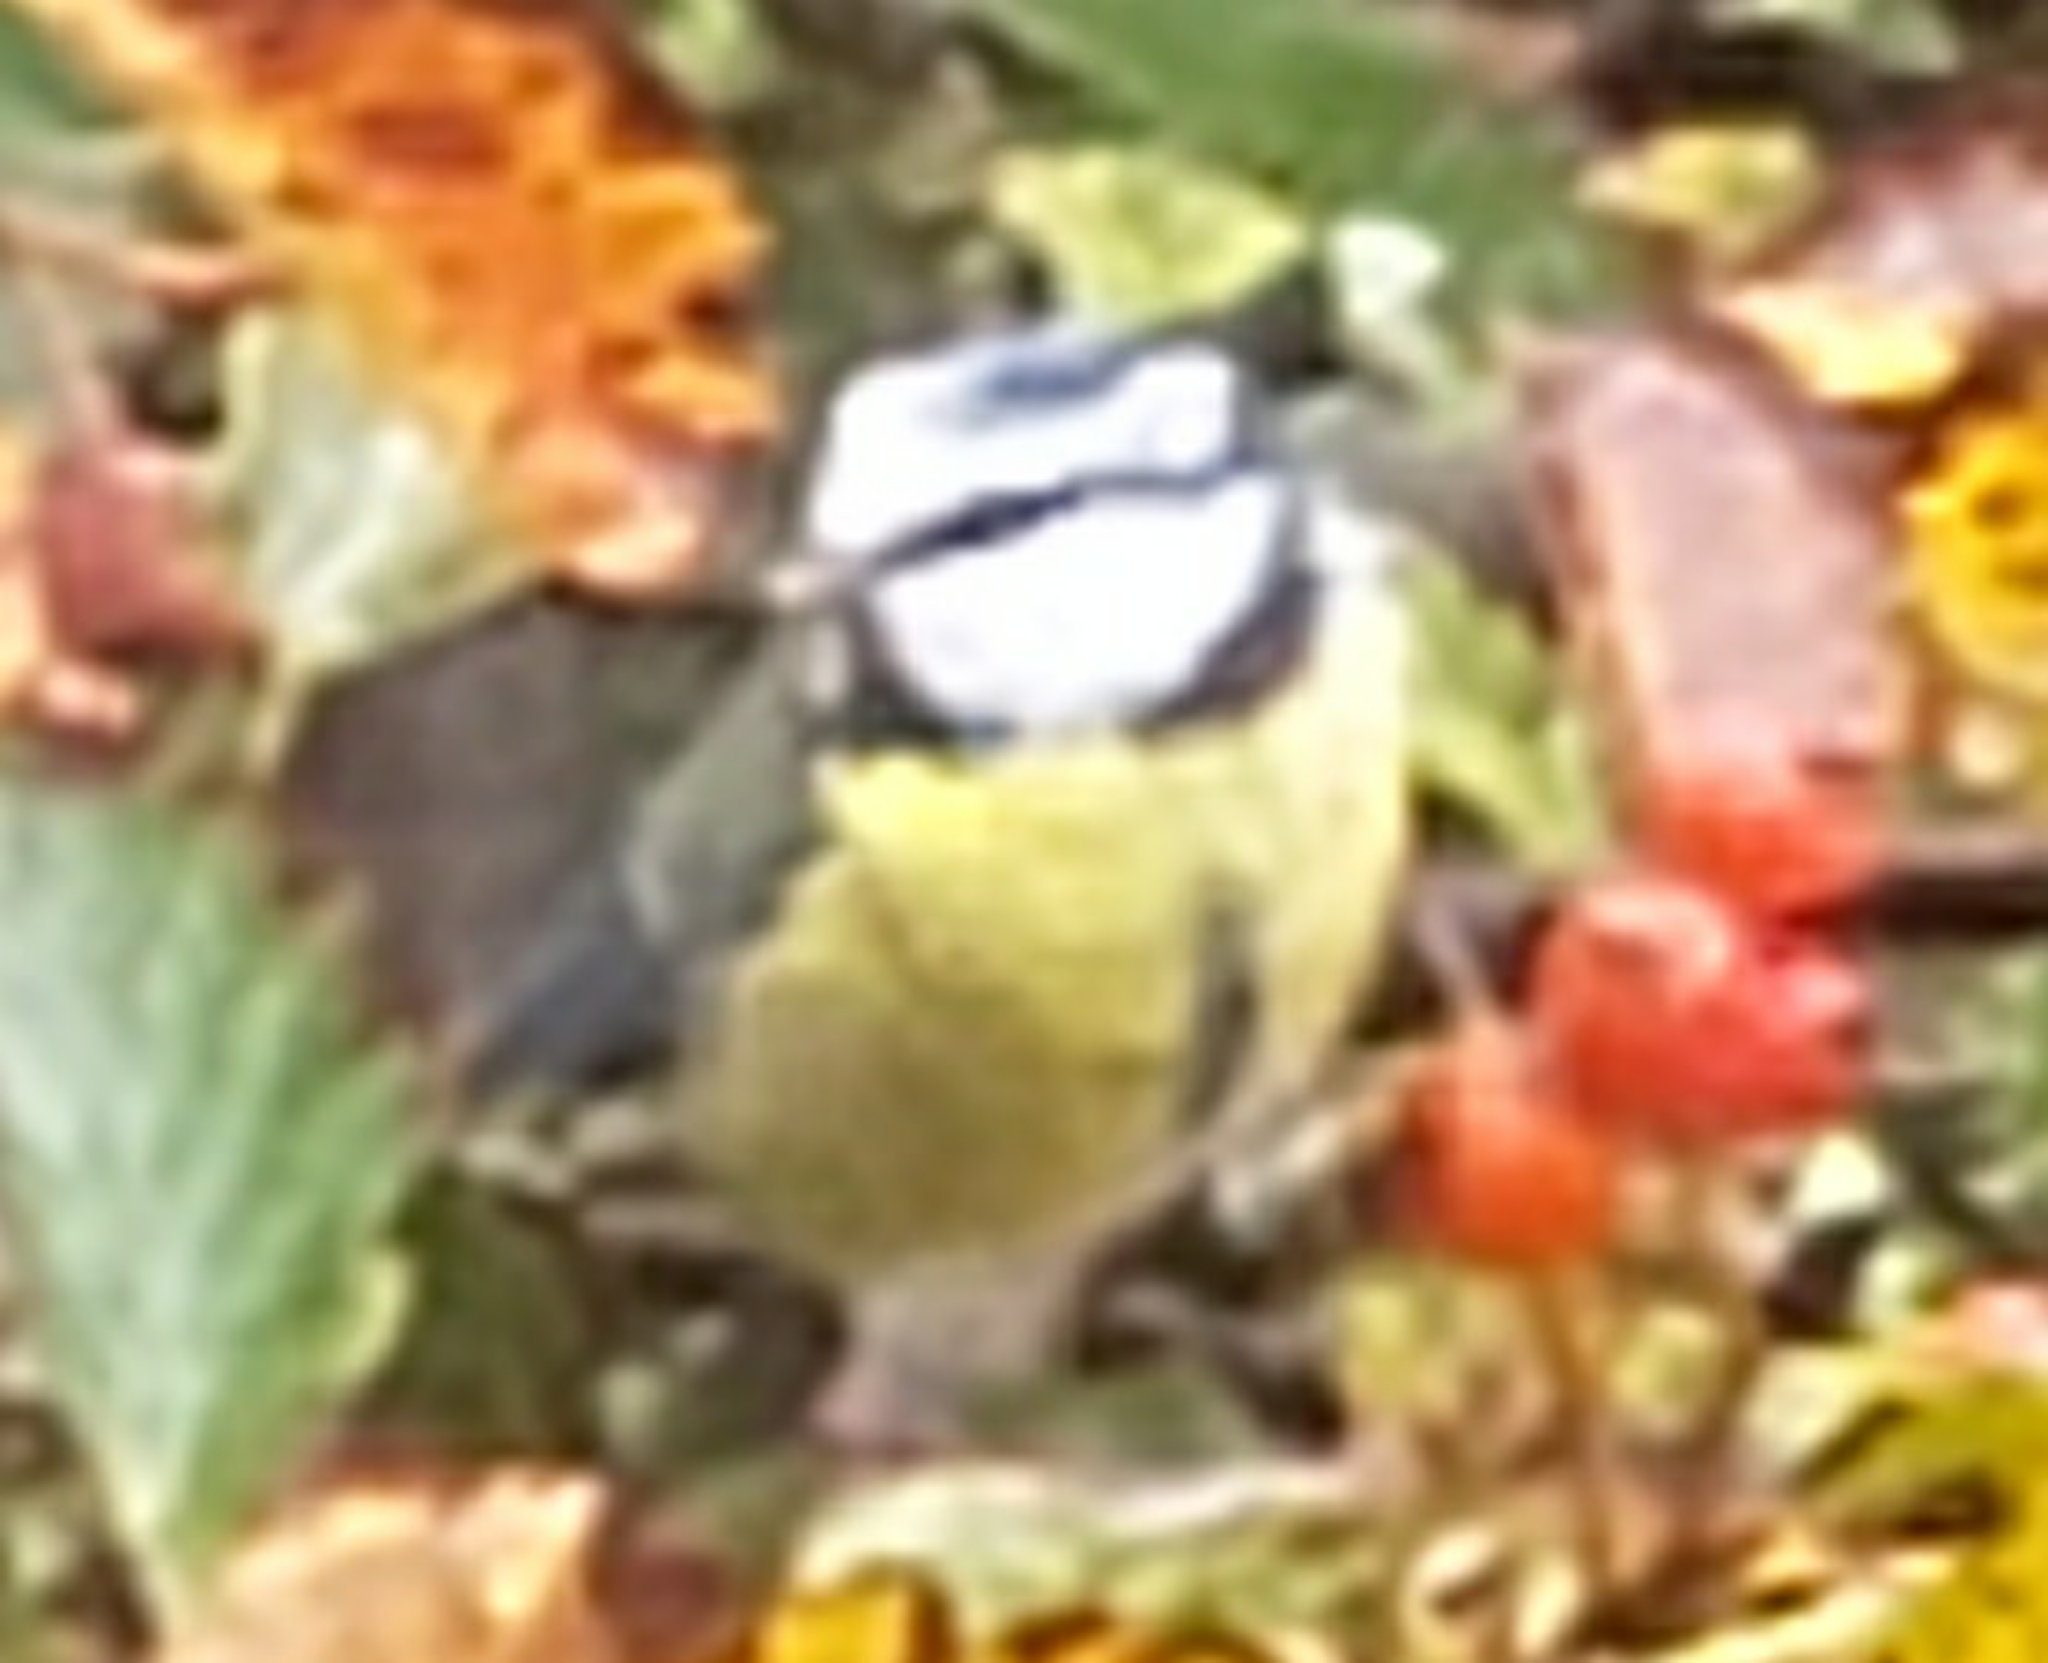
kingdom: Animalia
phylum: Chordata
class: Aves
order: Passeriformes
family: Paridae
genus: Cyanistes
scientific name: Cyanistes caeruleus
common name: Eurasian blue tit
